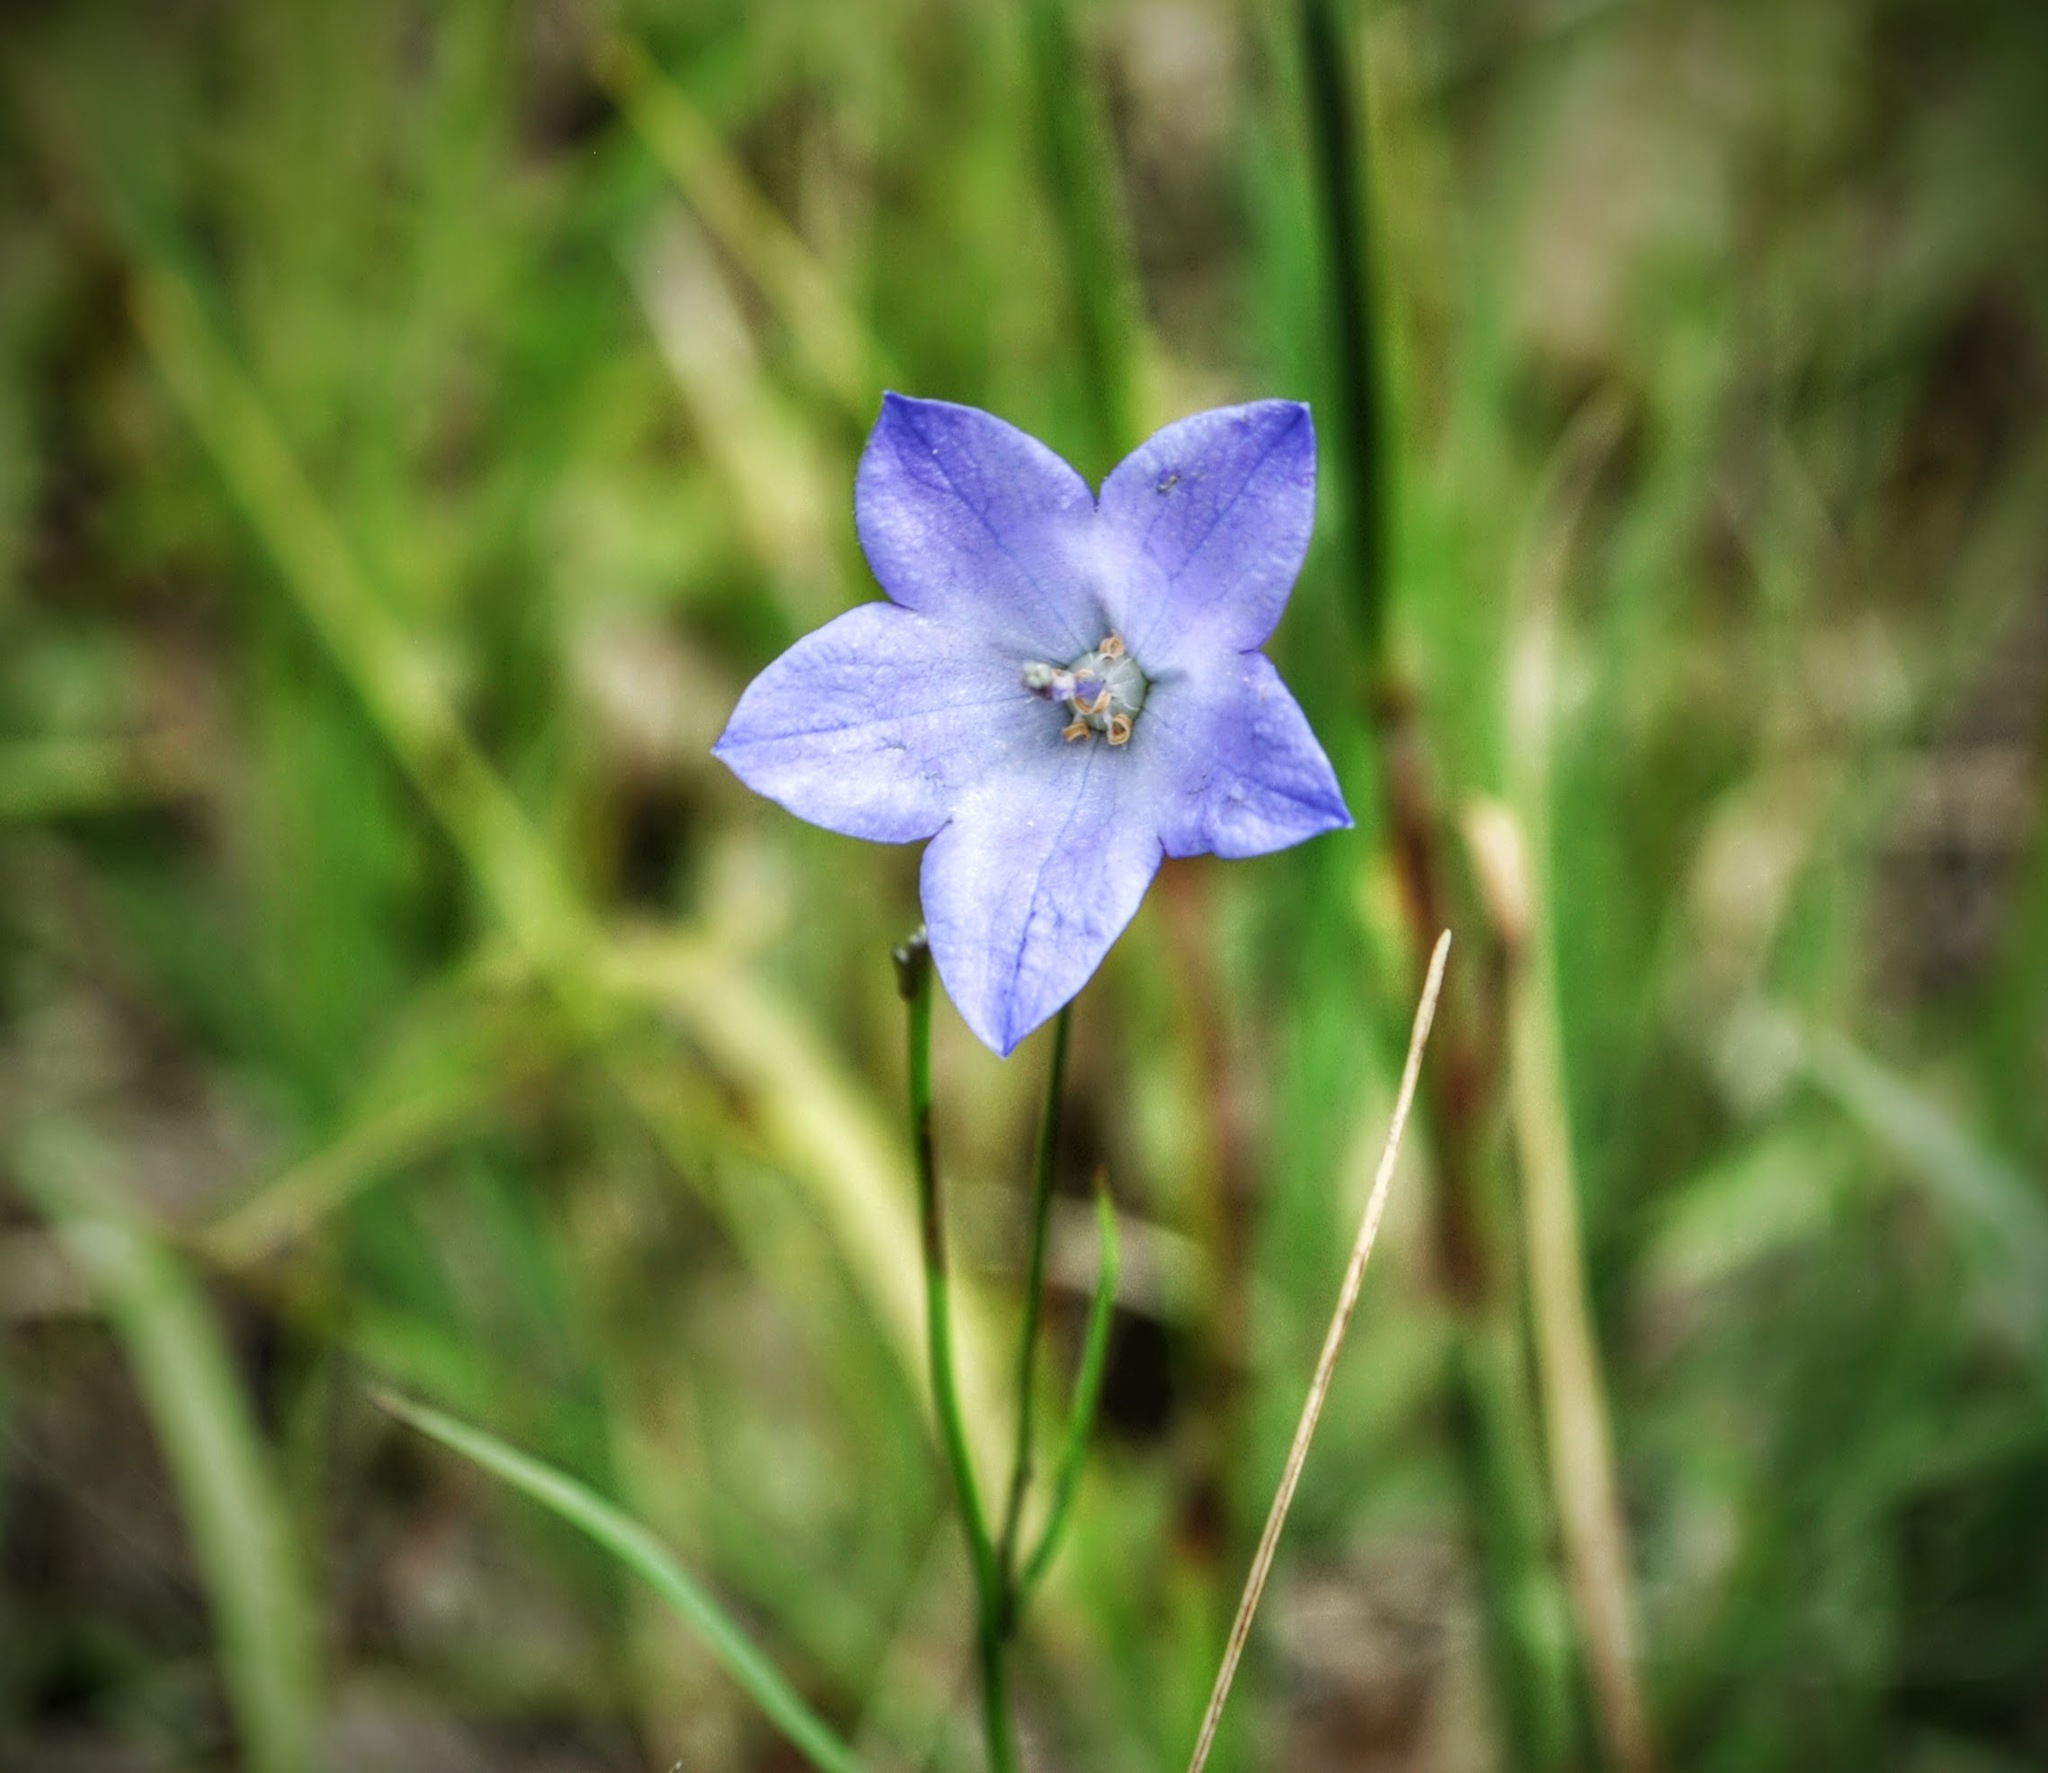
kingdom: Plantae
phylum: Tracheophyta
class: Magnoliopsida
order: Asterales
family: Campanulaceae
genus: Campanula
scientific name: Campanula intercedens
